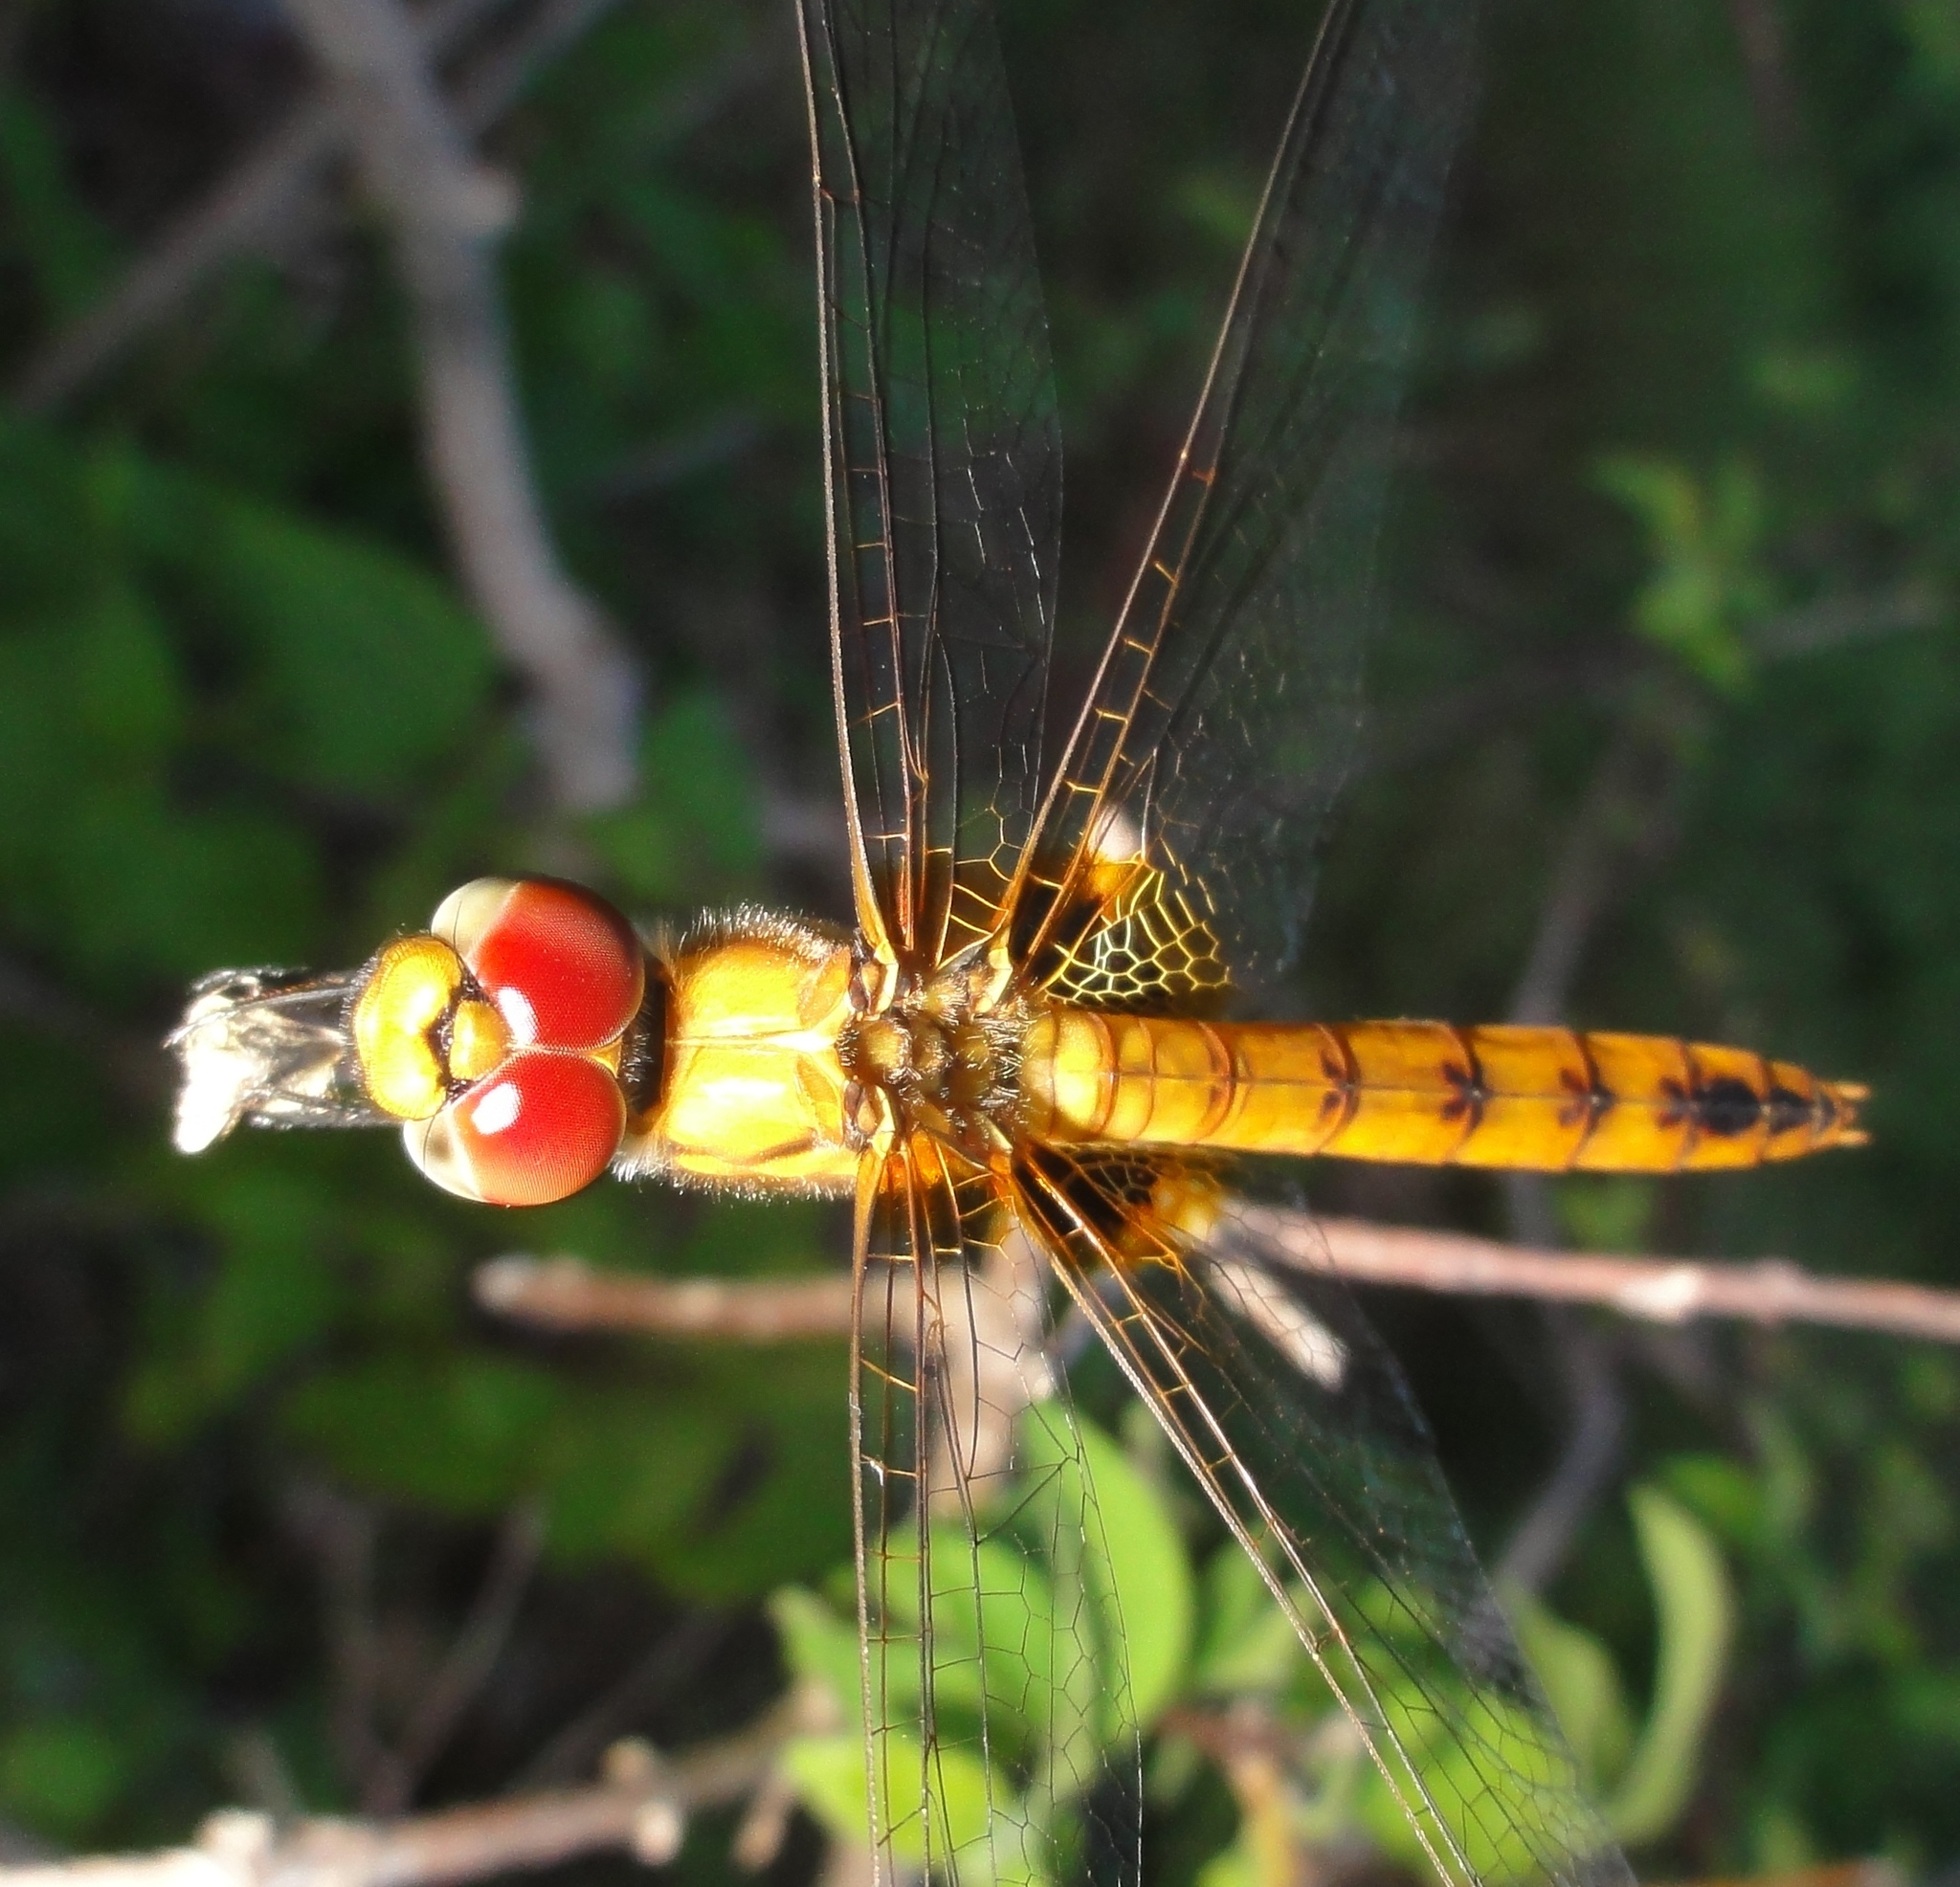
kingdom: Animalia
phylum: Arthropoda
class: Insecta
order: Odonata
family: Libellulidae
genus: Aethriamanta
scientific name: Aethriamanta aethra
